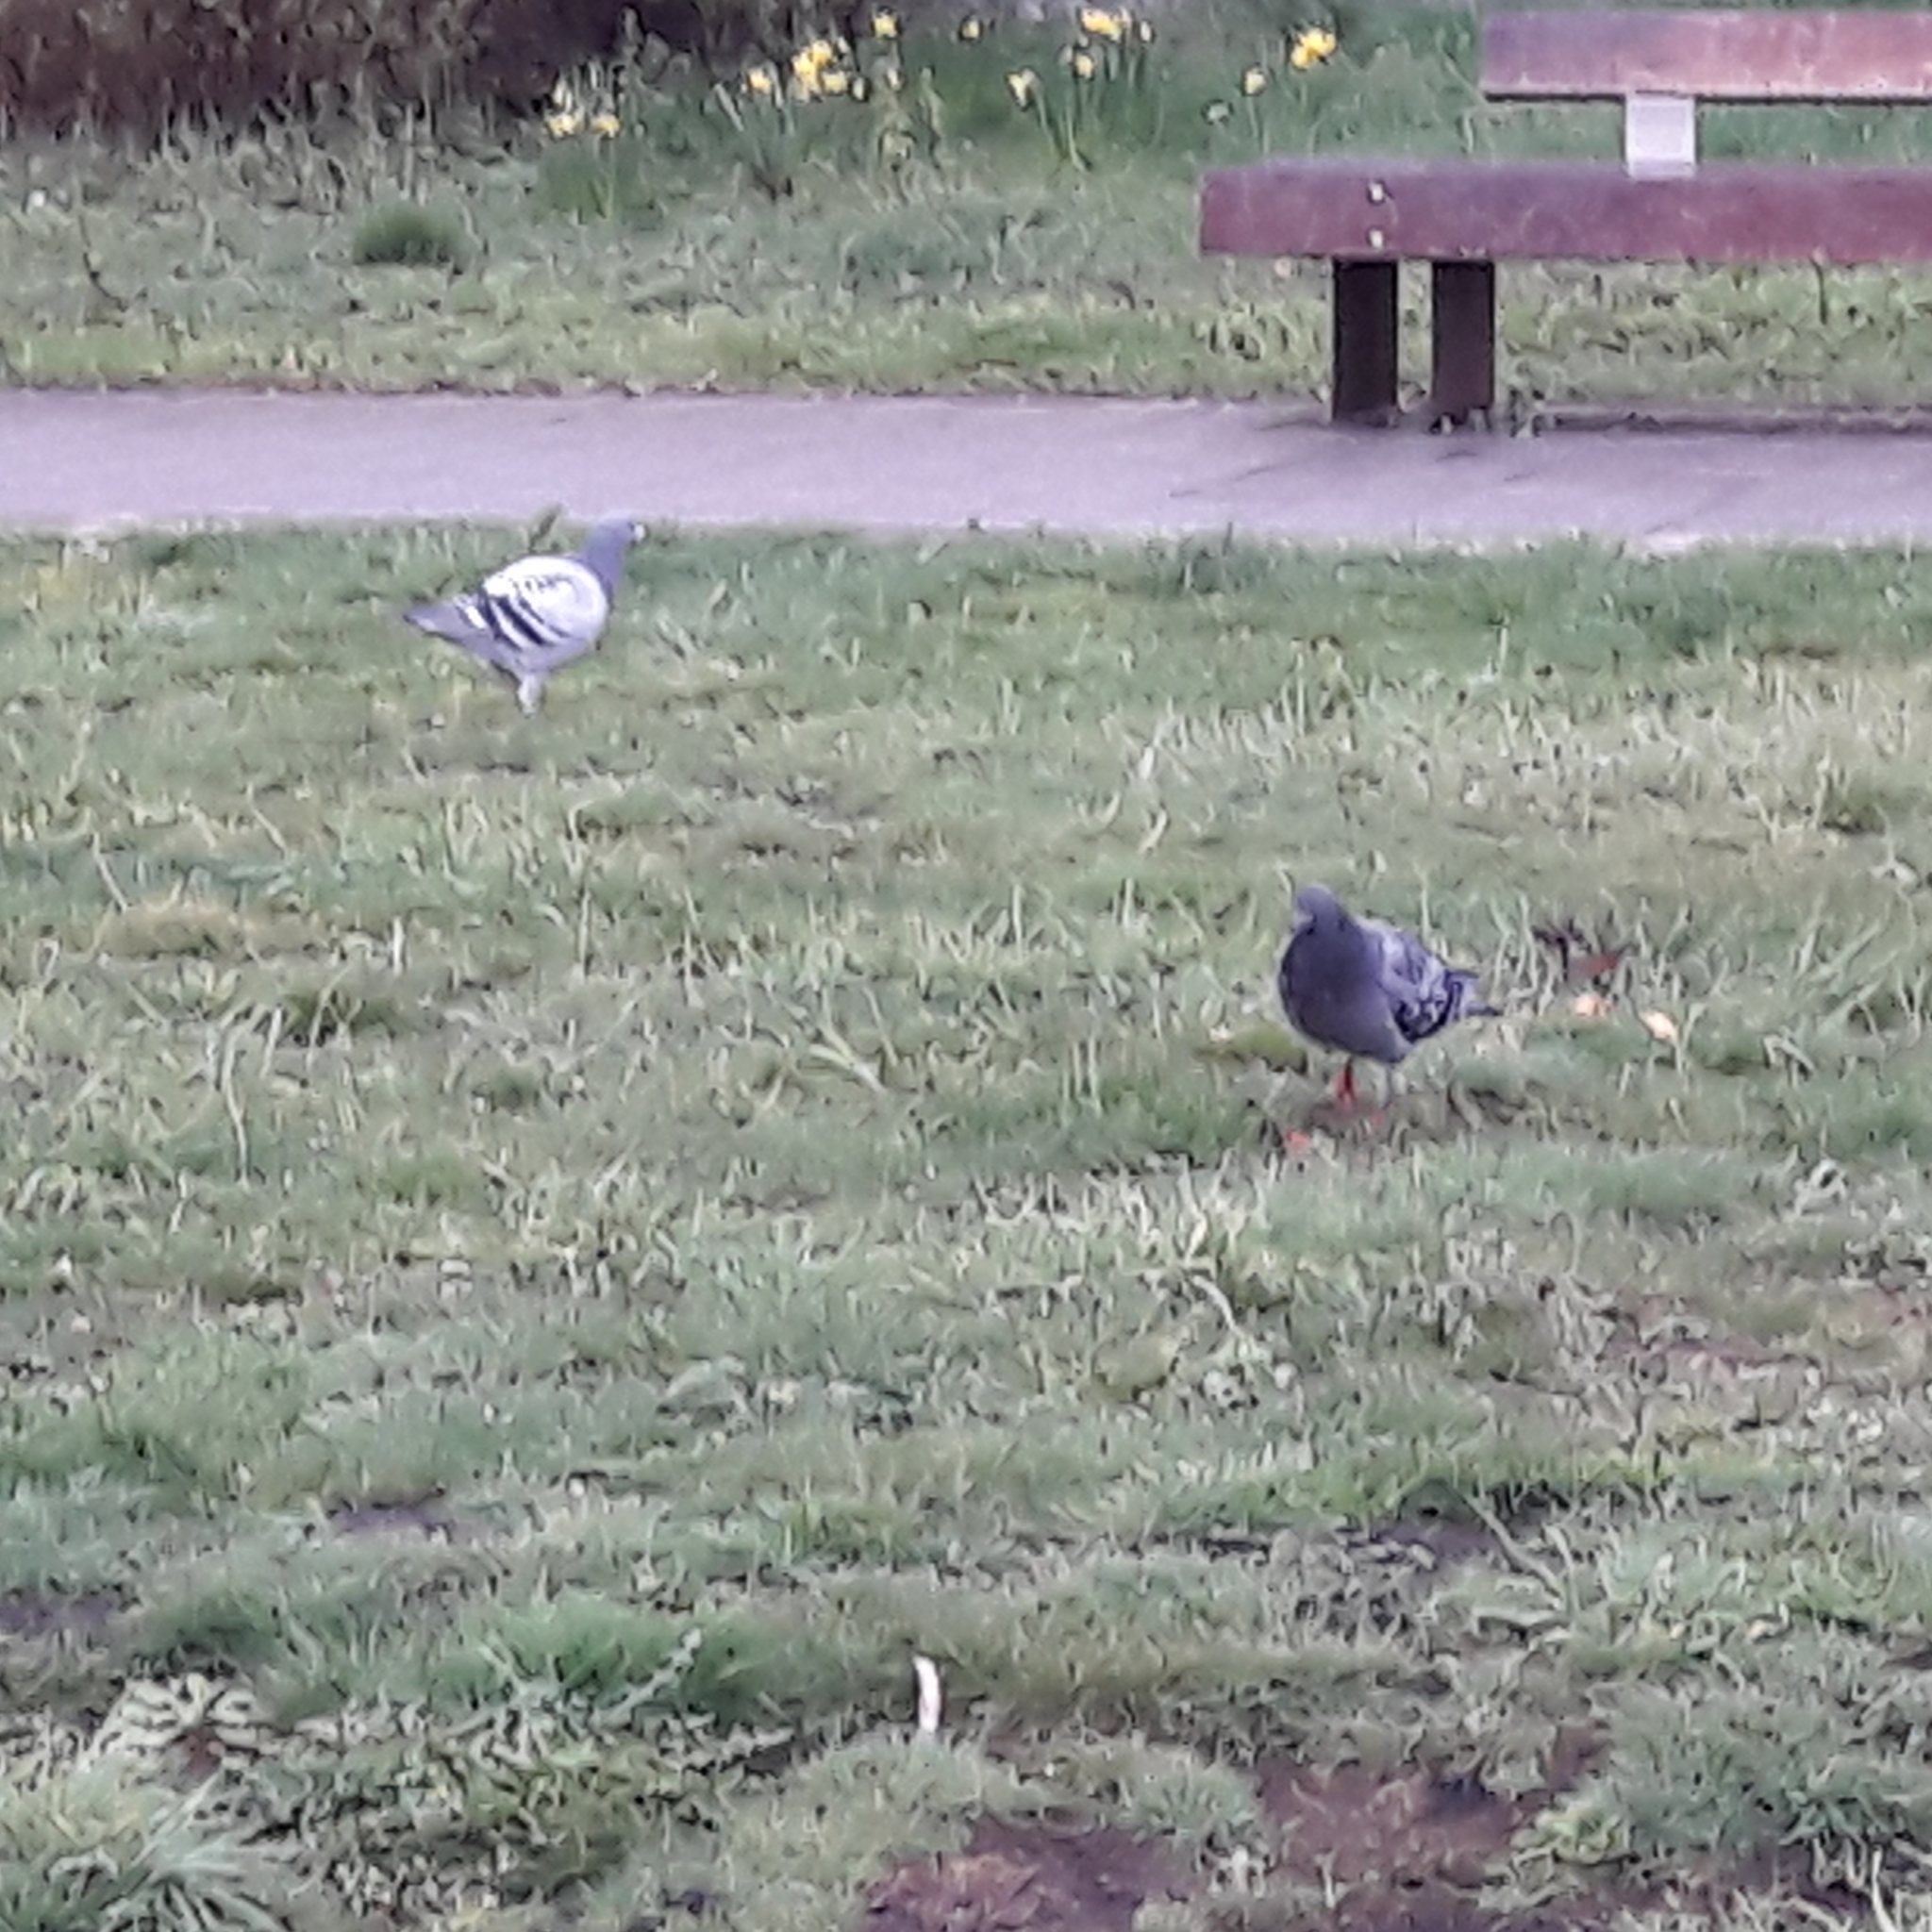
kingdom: Animalia
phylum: Chordata
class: Aves
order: Columbiformes
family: Columbidae
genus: Columba
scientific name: Columba livia
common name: Rock pigeon
